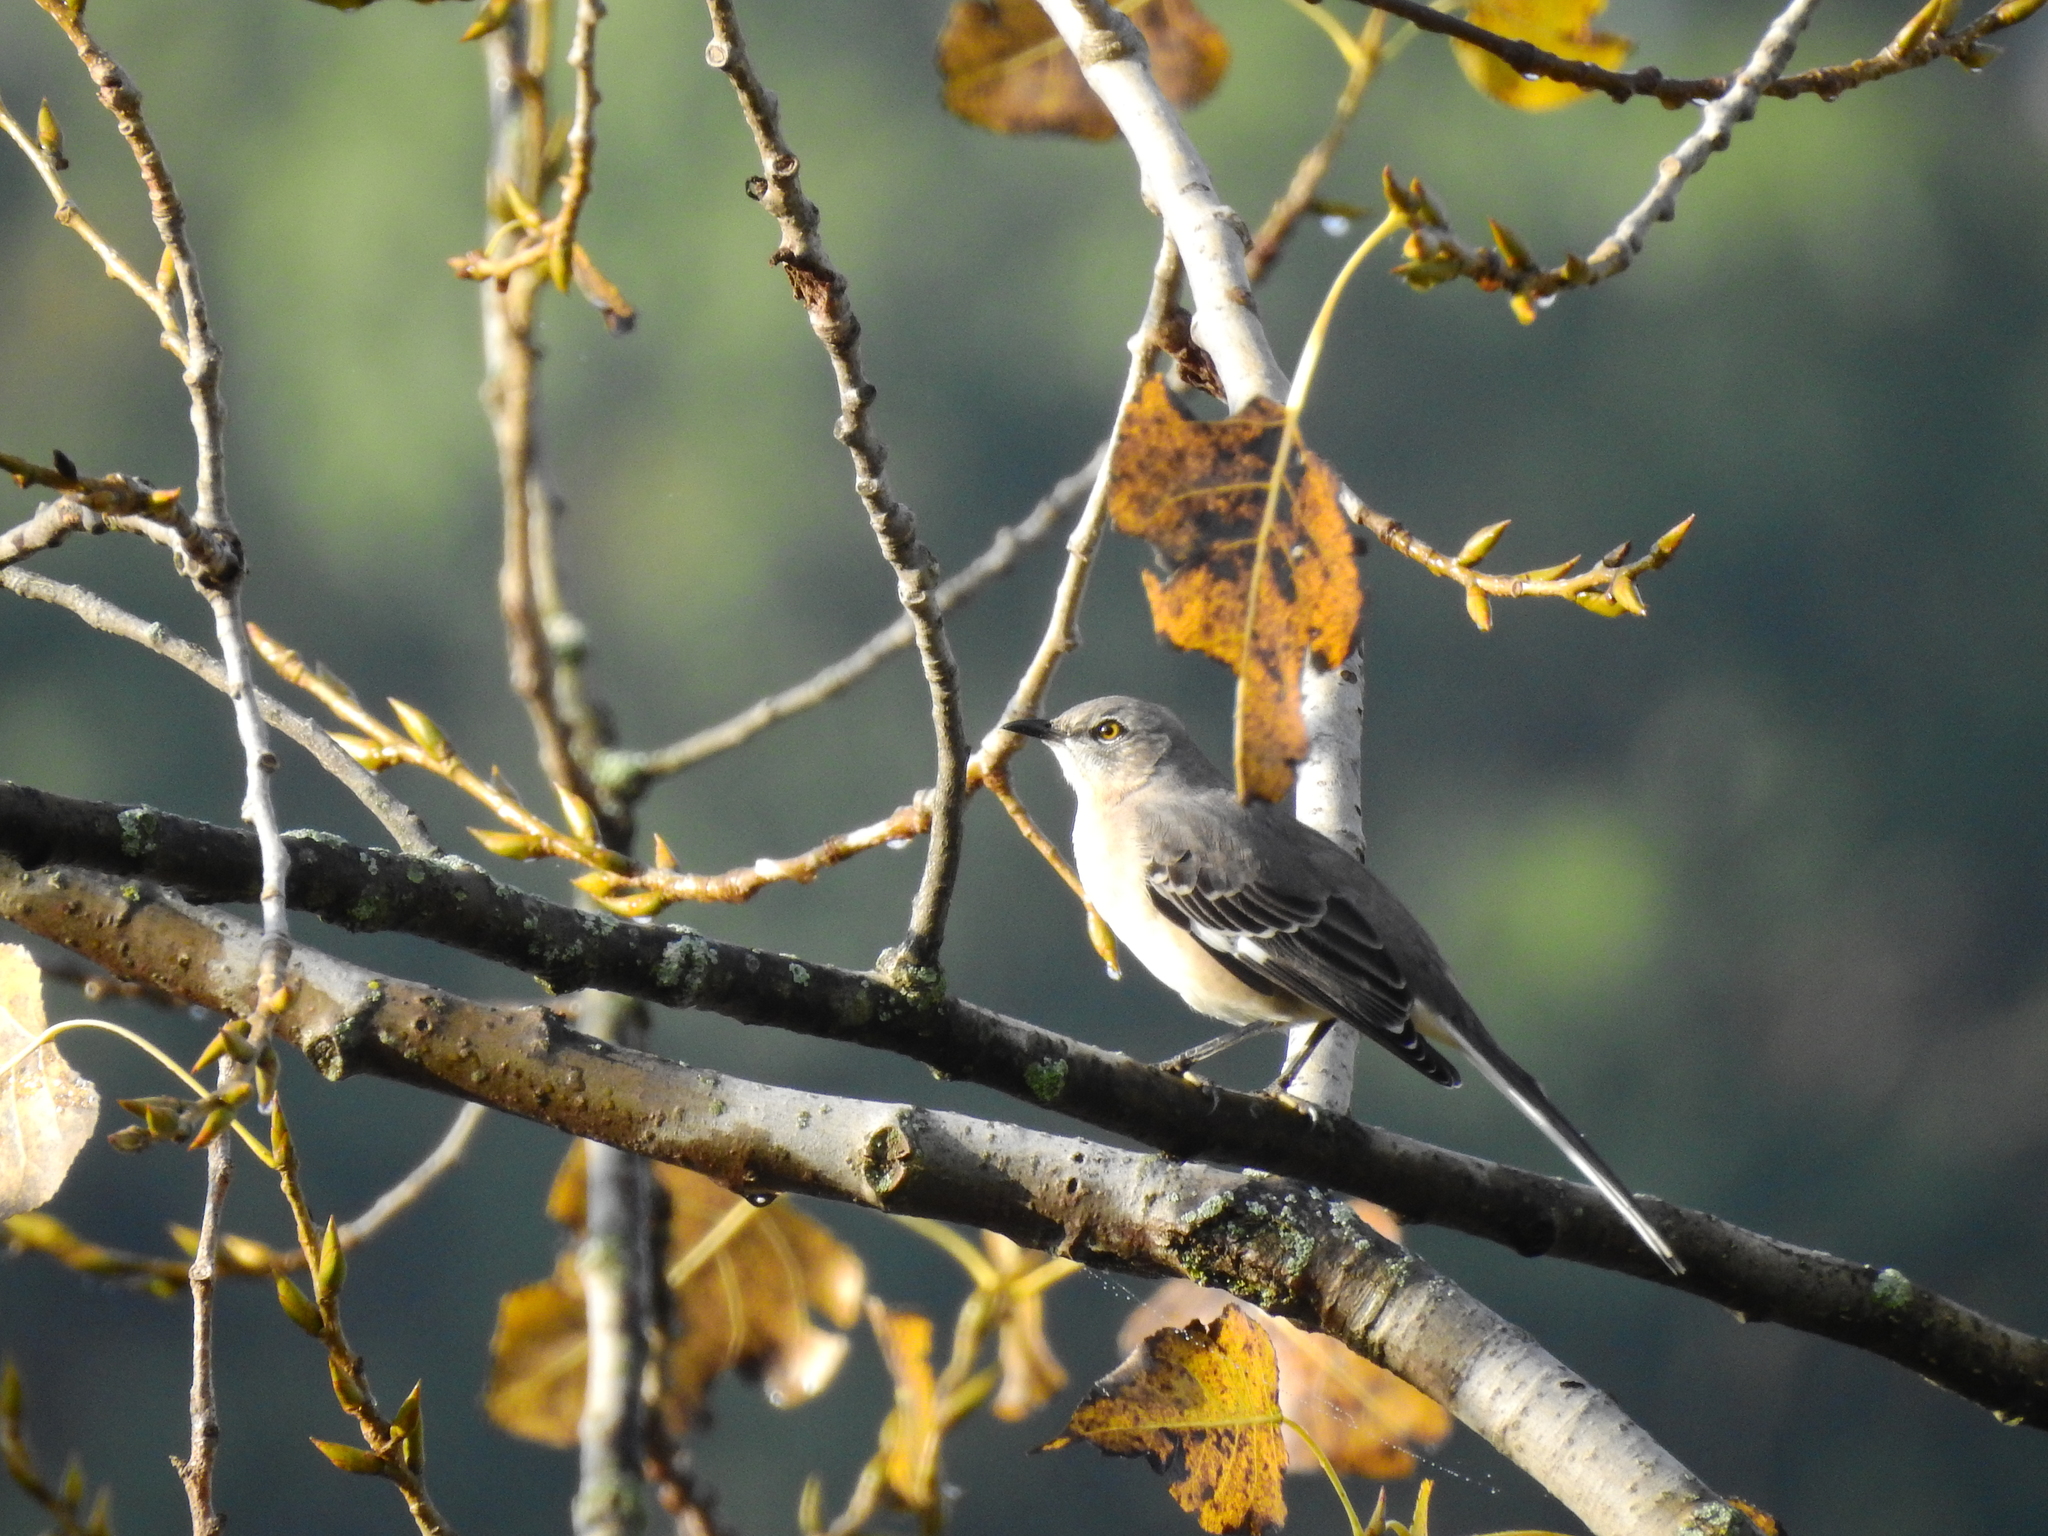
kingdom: Animalia
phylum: Chordata
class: Aves
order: Passeriformes
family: Mimidae
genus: Mimus
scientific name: Mimus polyglottos
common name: Northern mockingbird
